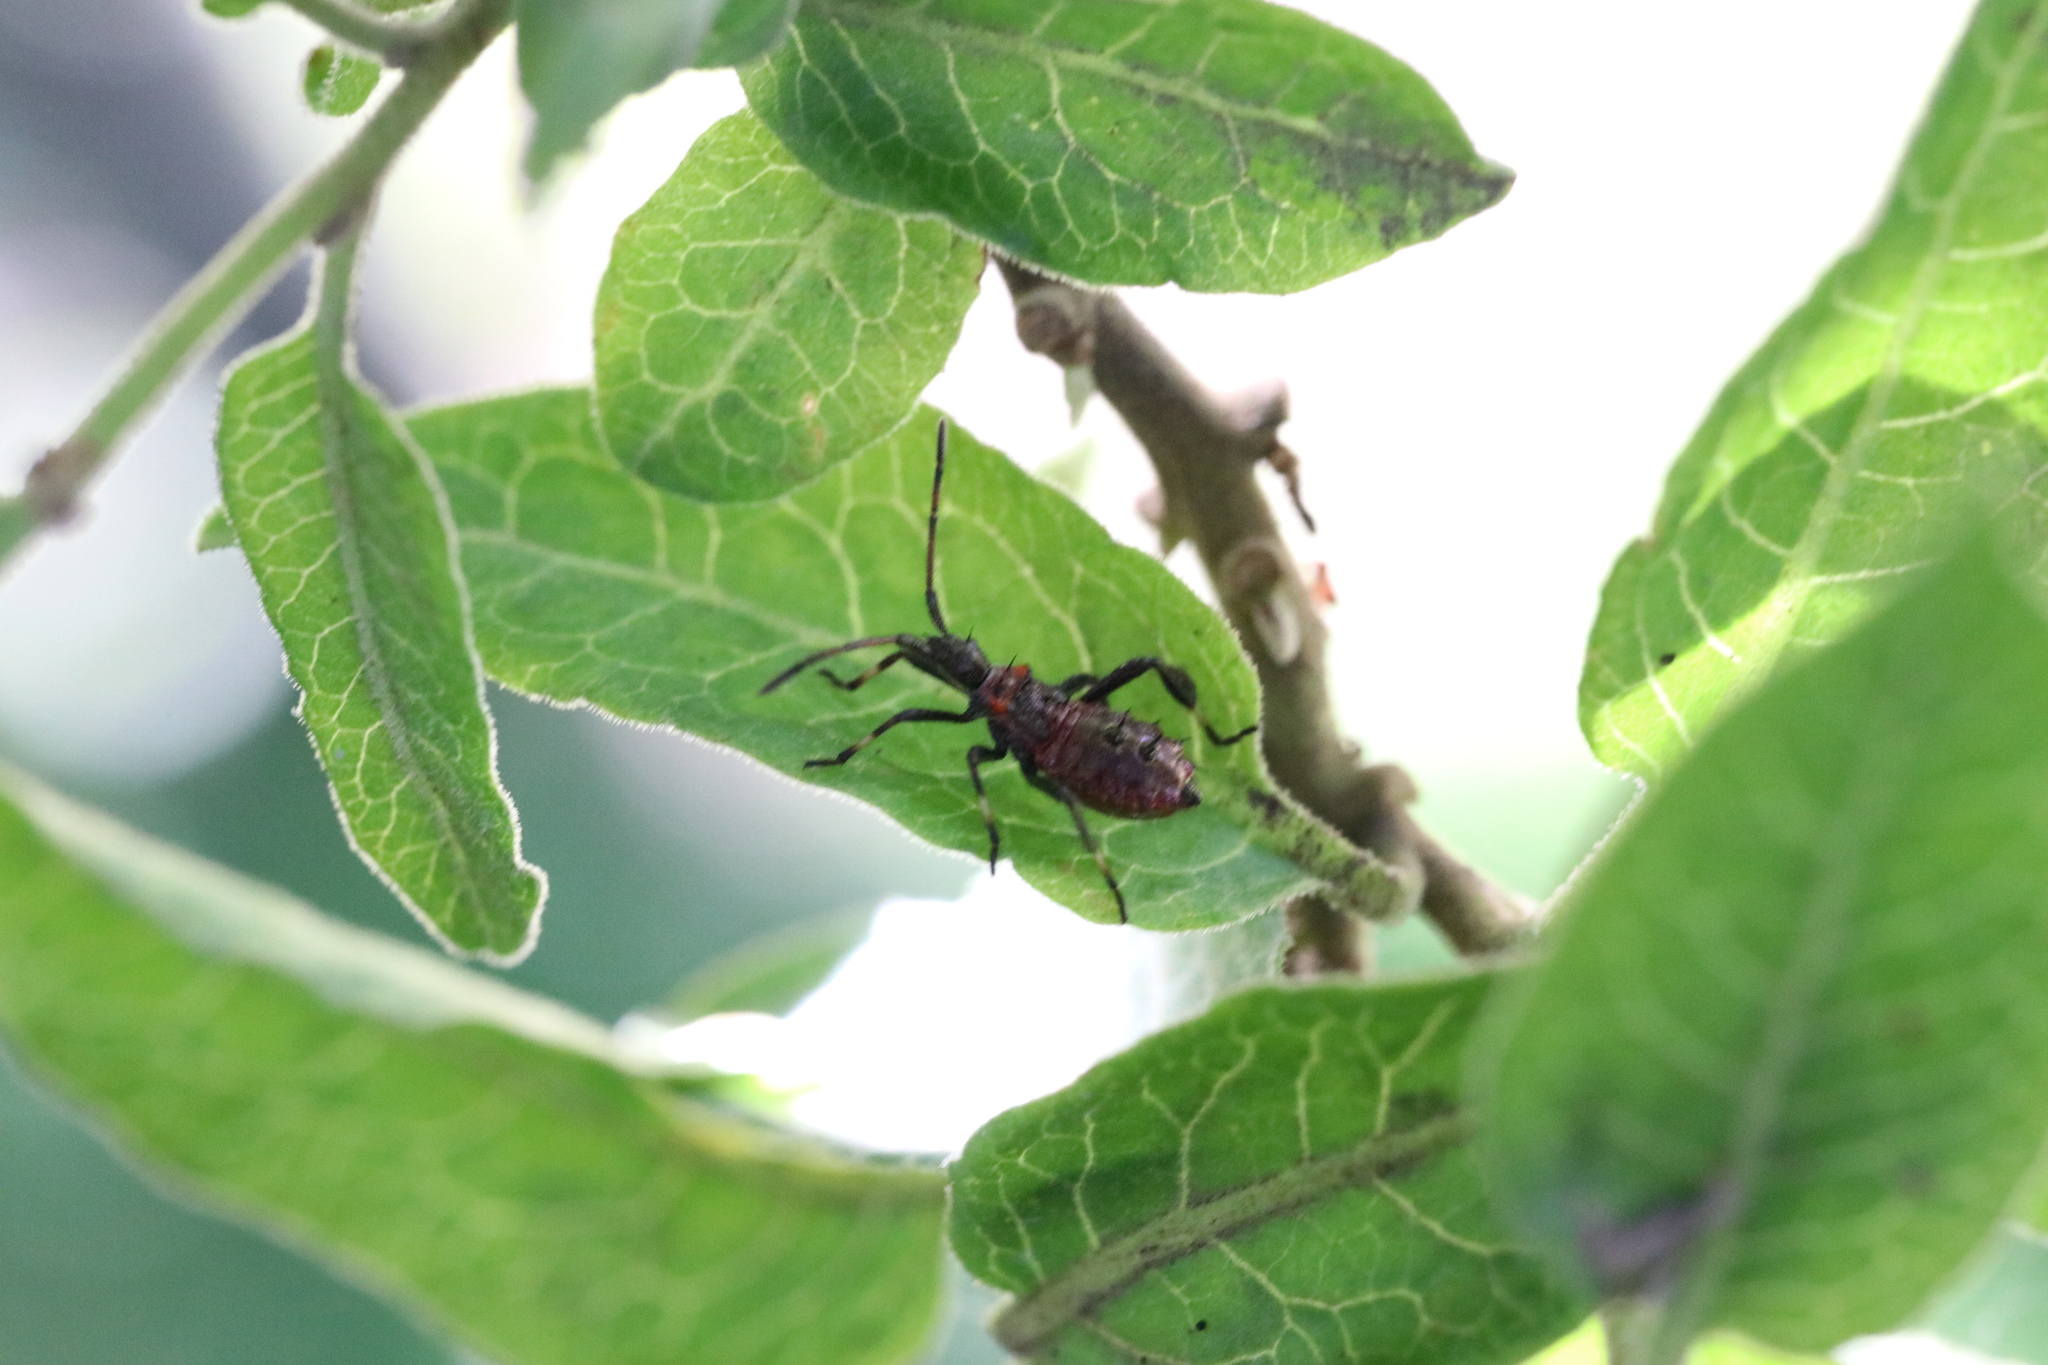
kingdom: Animalia
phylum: Arthropoda
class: Insecta
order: Hemiptera
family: Coreidae
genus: Leptoglossus
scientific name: Leptoglossus chilensis
